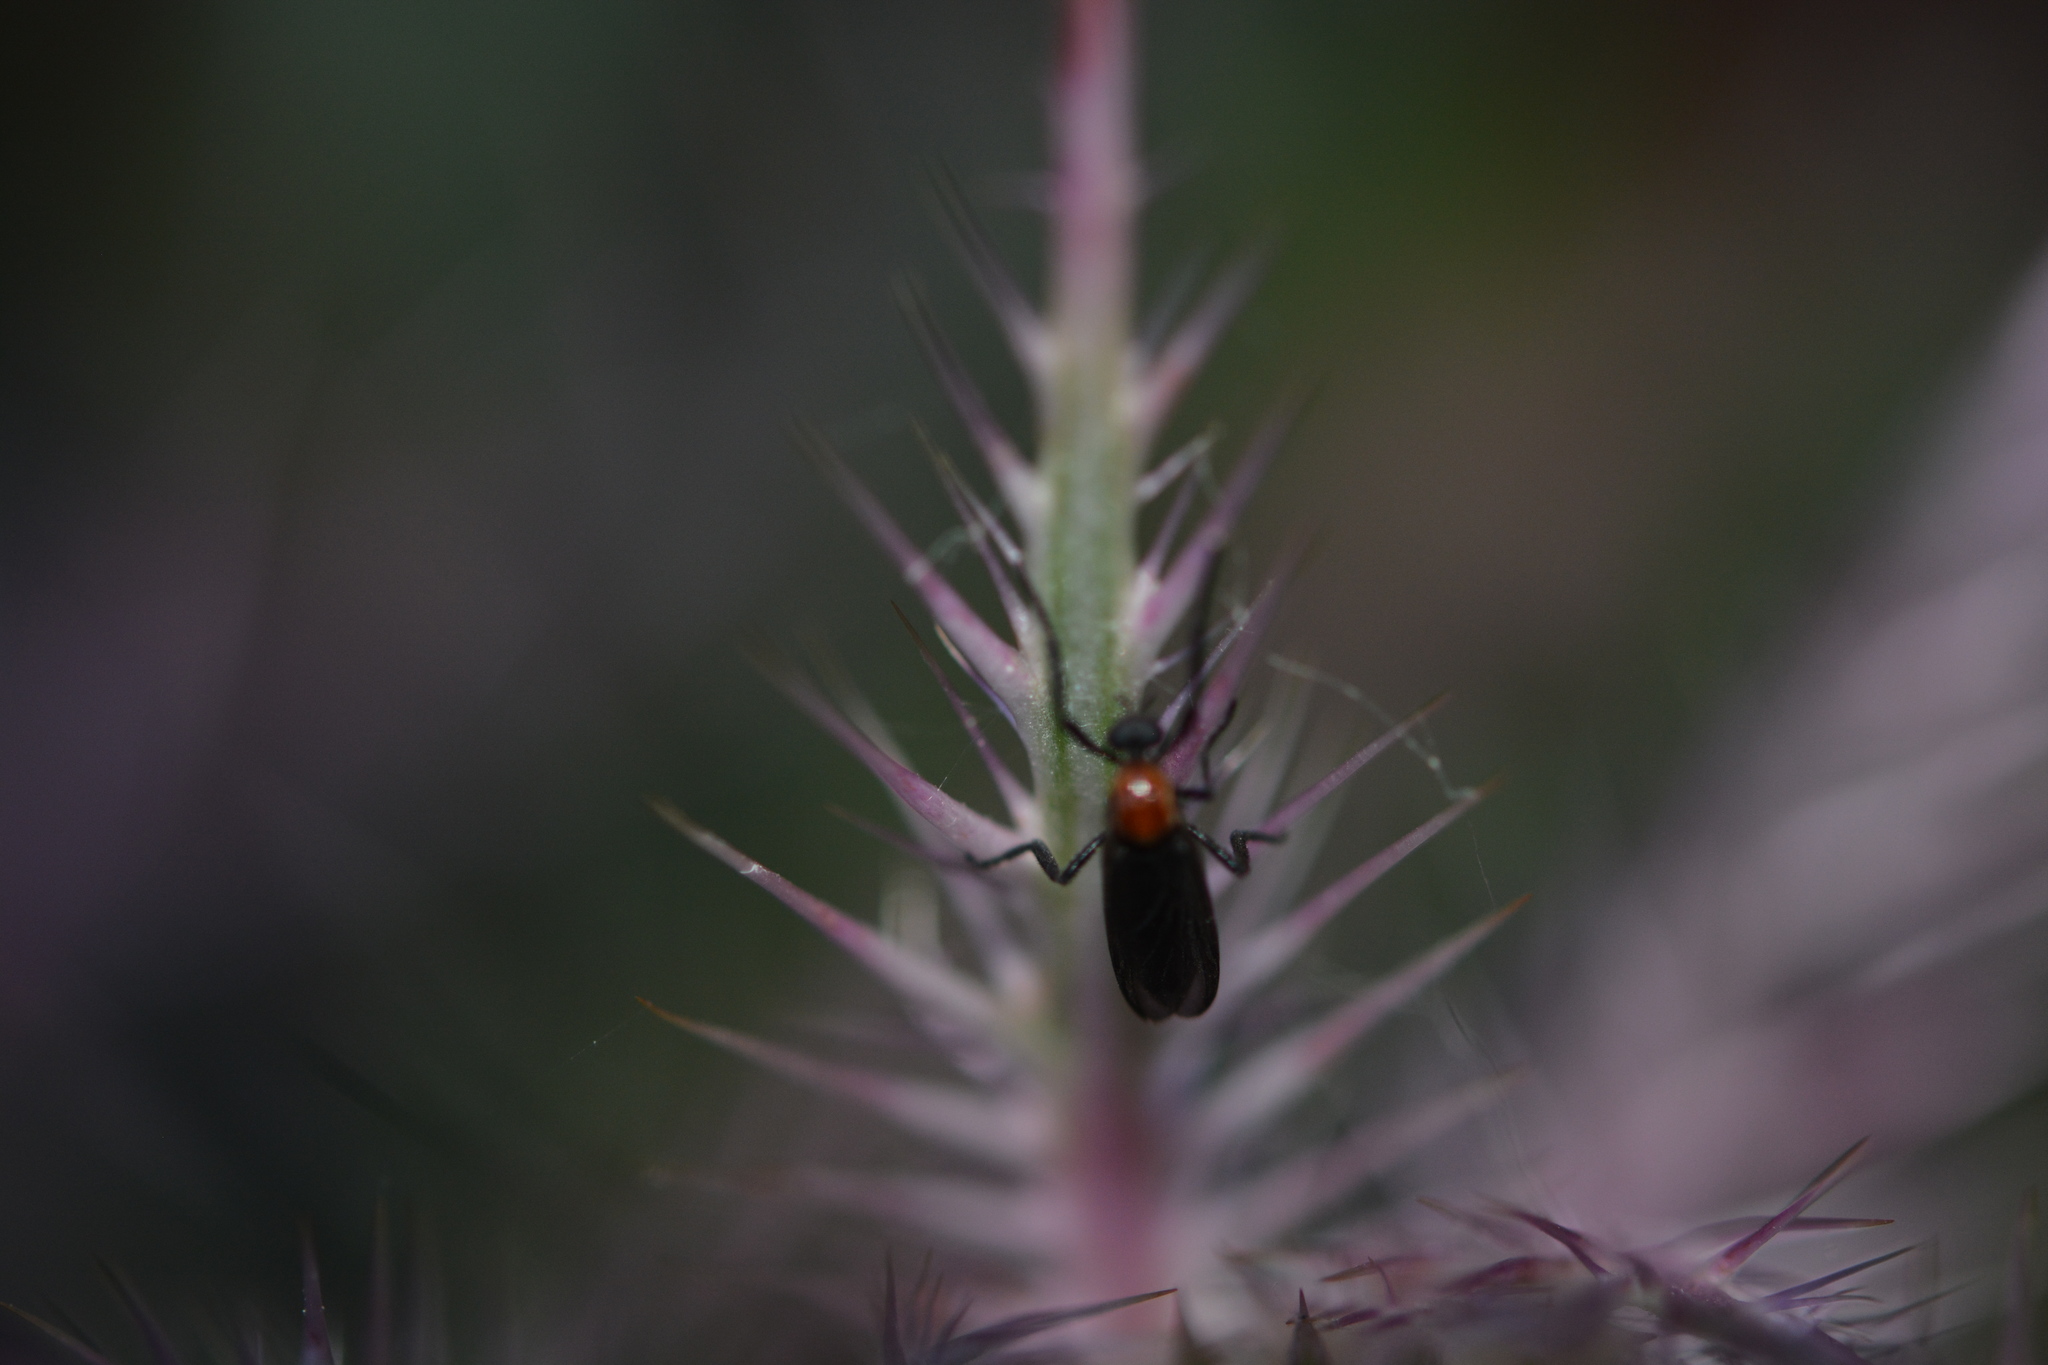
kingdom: Animalia
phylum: Arthropoda
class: Insecta
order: Diptera
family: Bibionidae
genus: Plecia
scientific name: Plecia nearctica
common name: March fly
